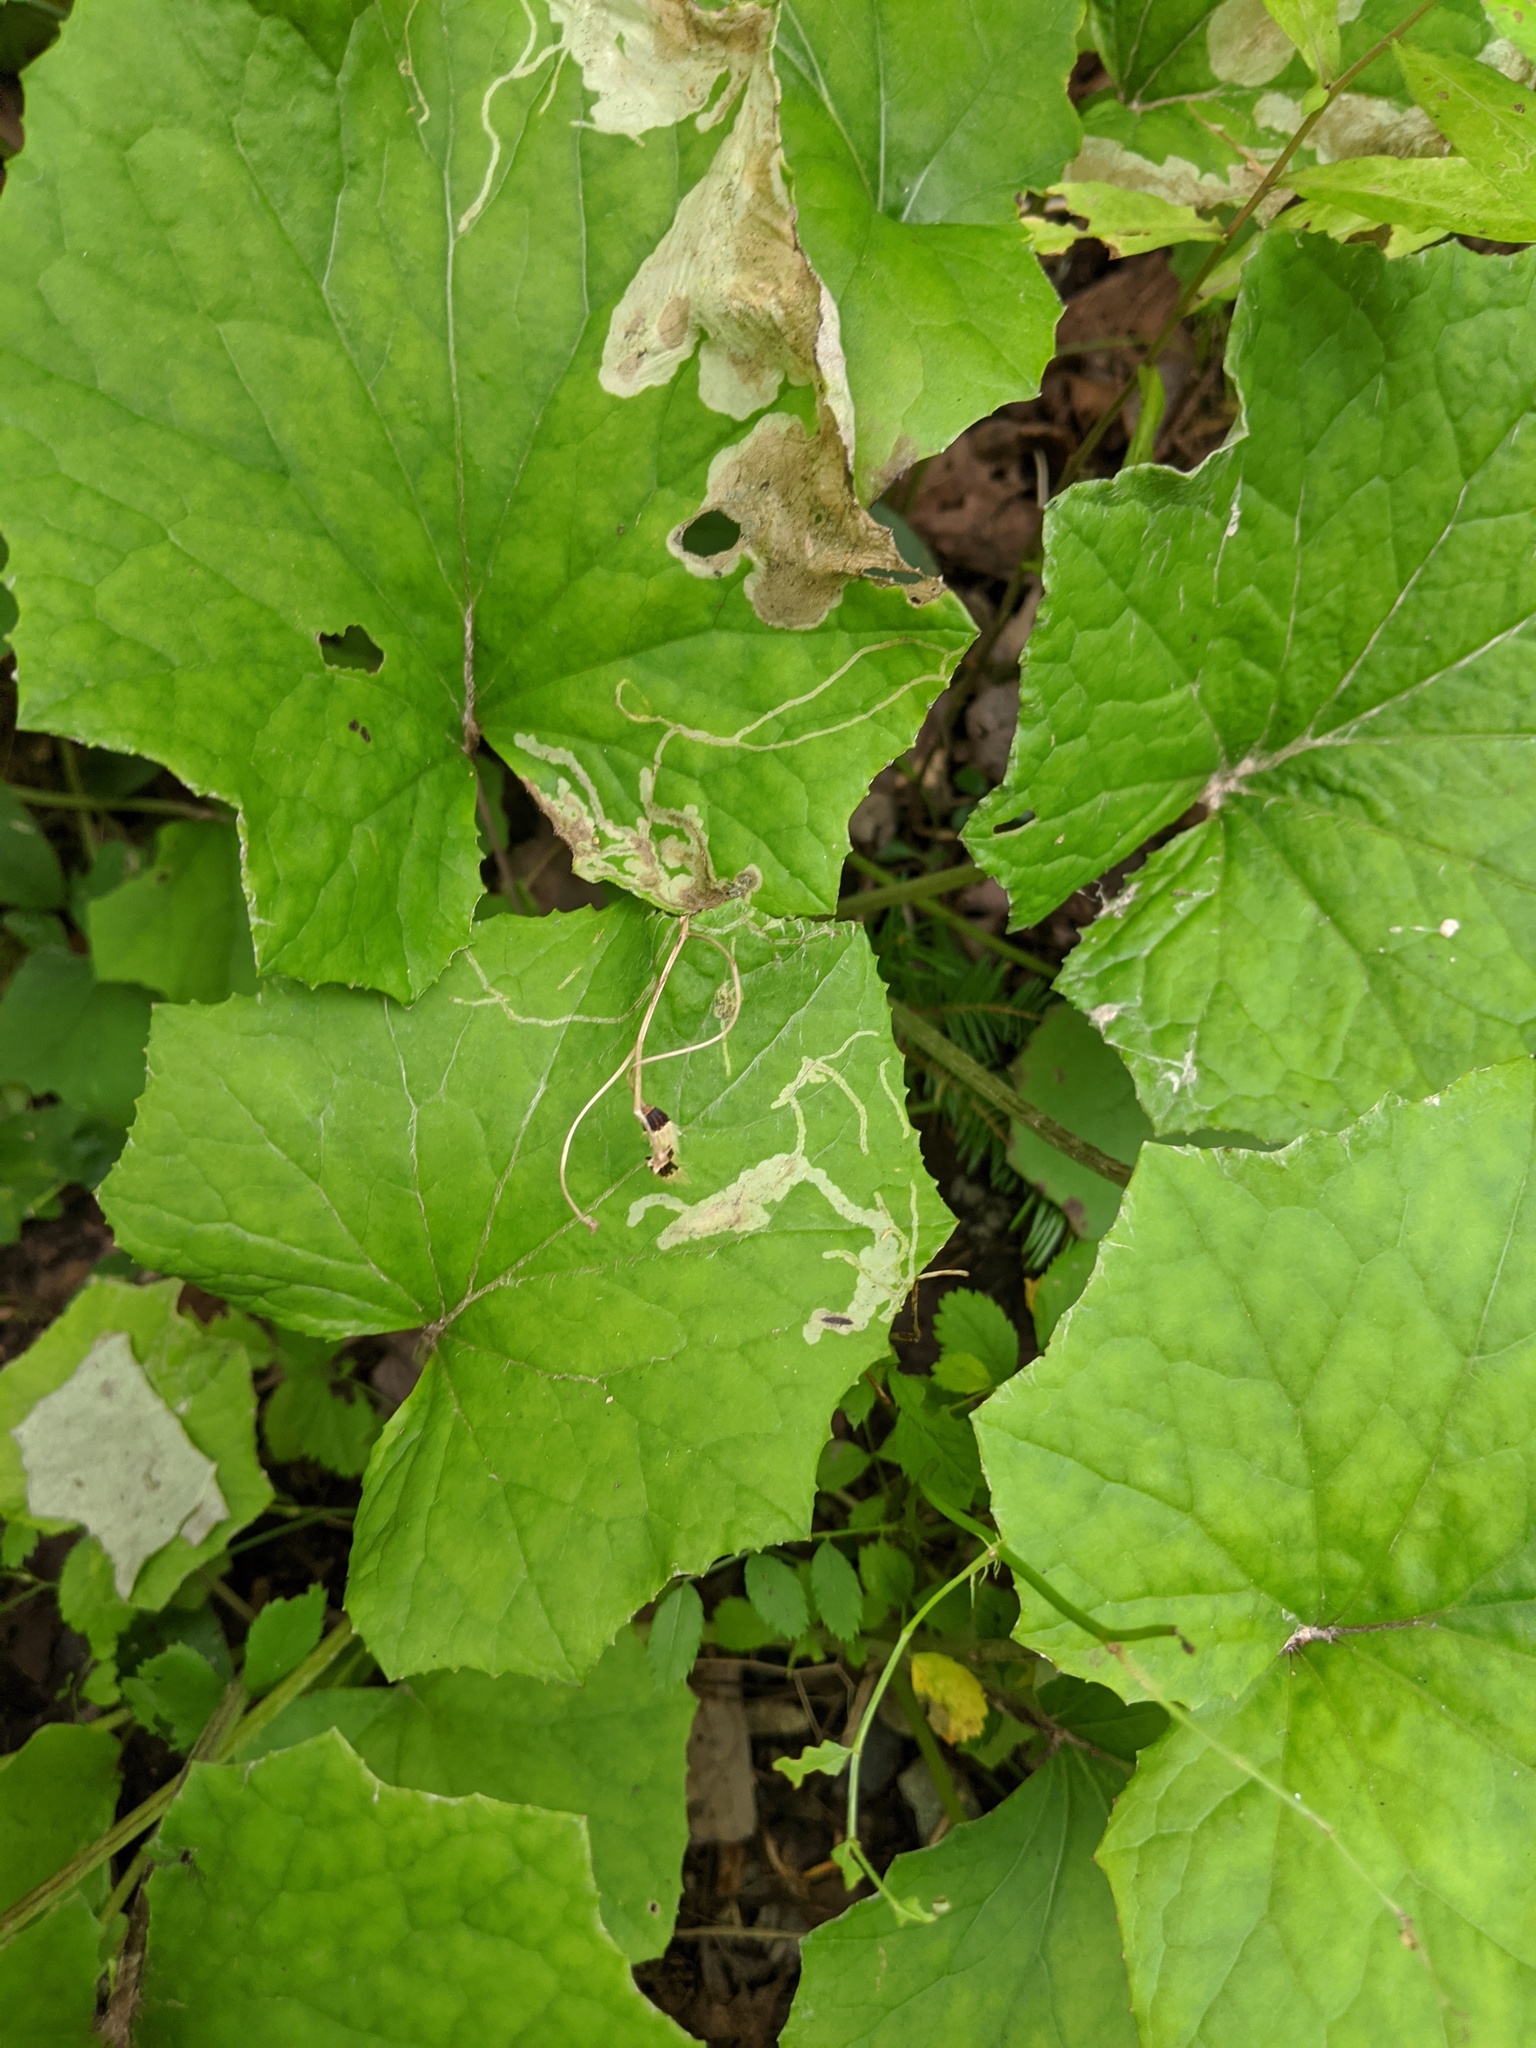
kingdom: Animalia
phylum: Arthropoda
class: Insecta
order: Diptera
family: Tephritidae
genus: Acidia
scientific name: Acidia cognata
